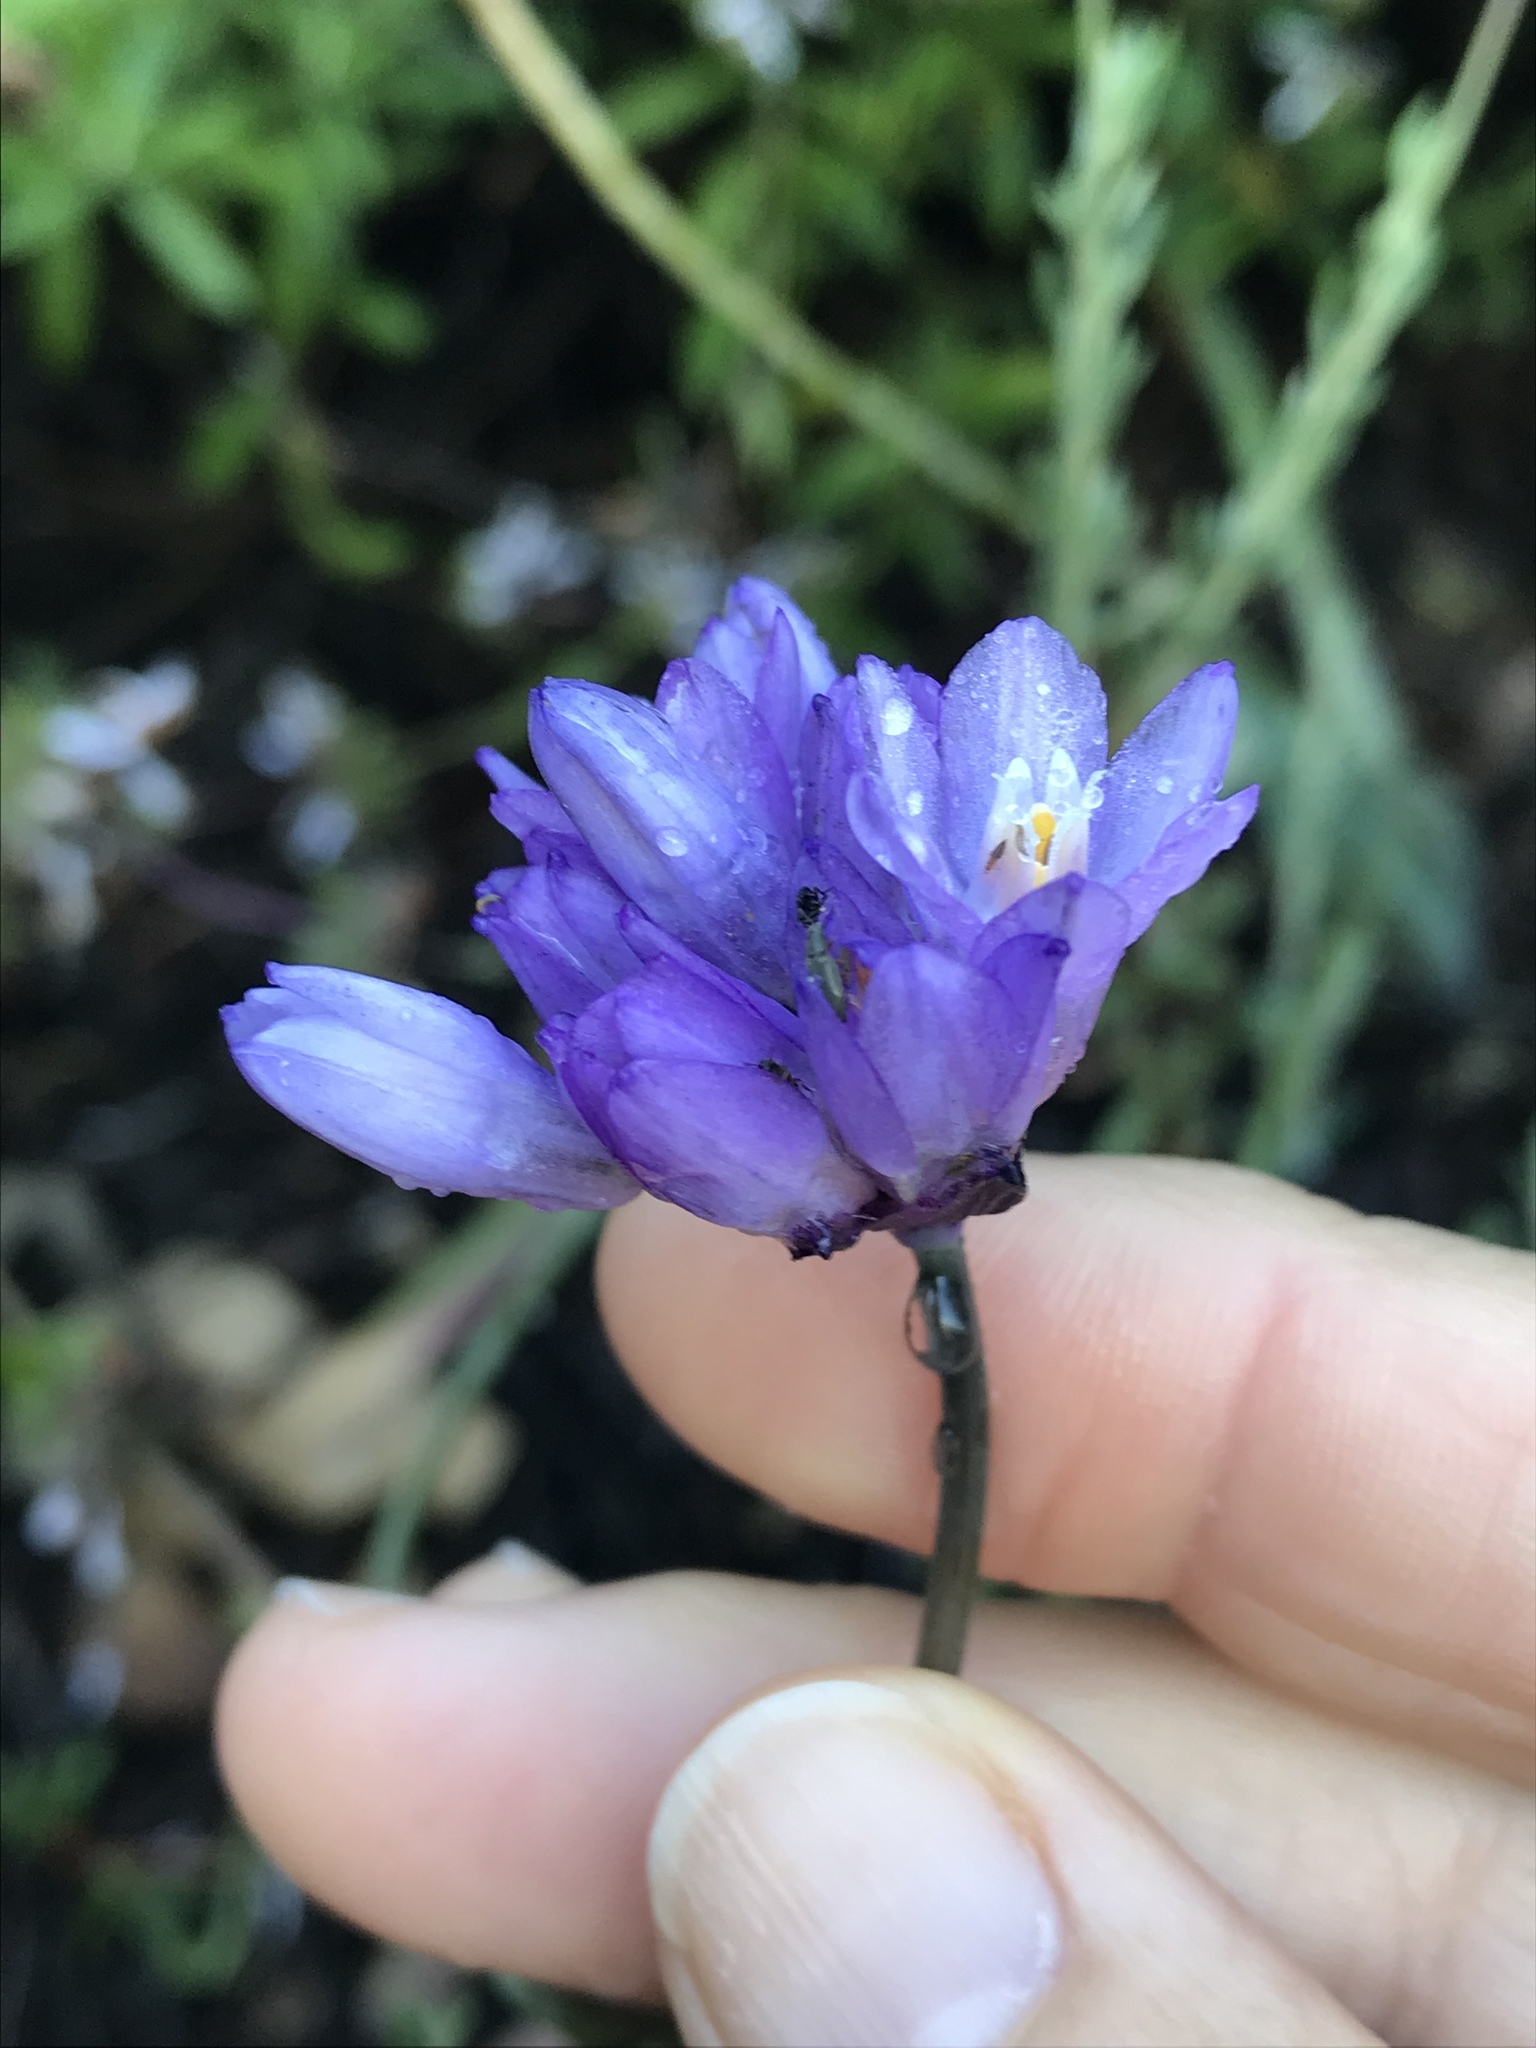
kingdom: Plantae
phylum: Tracheophyta
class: Liliopsida
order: Asparagales
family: Asparagaceae
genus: Dipterostemon
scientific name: Dipterostemon capitatus
